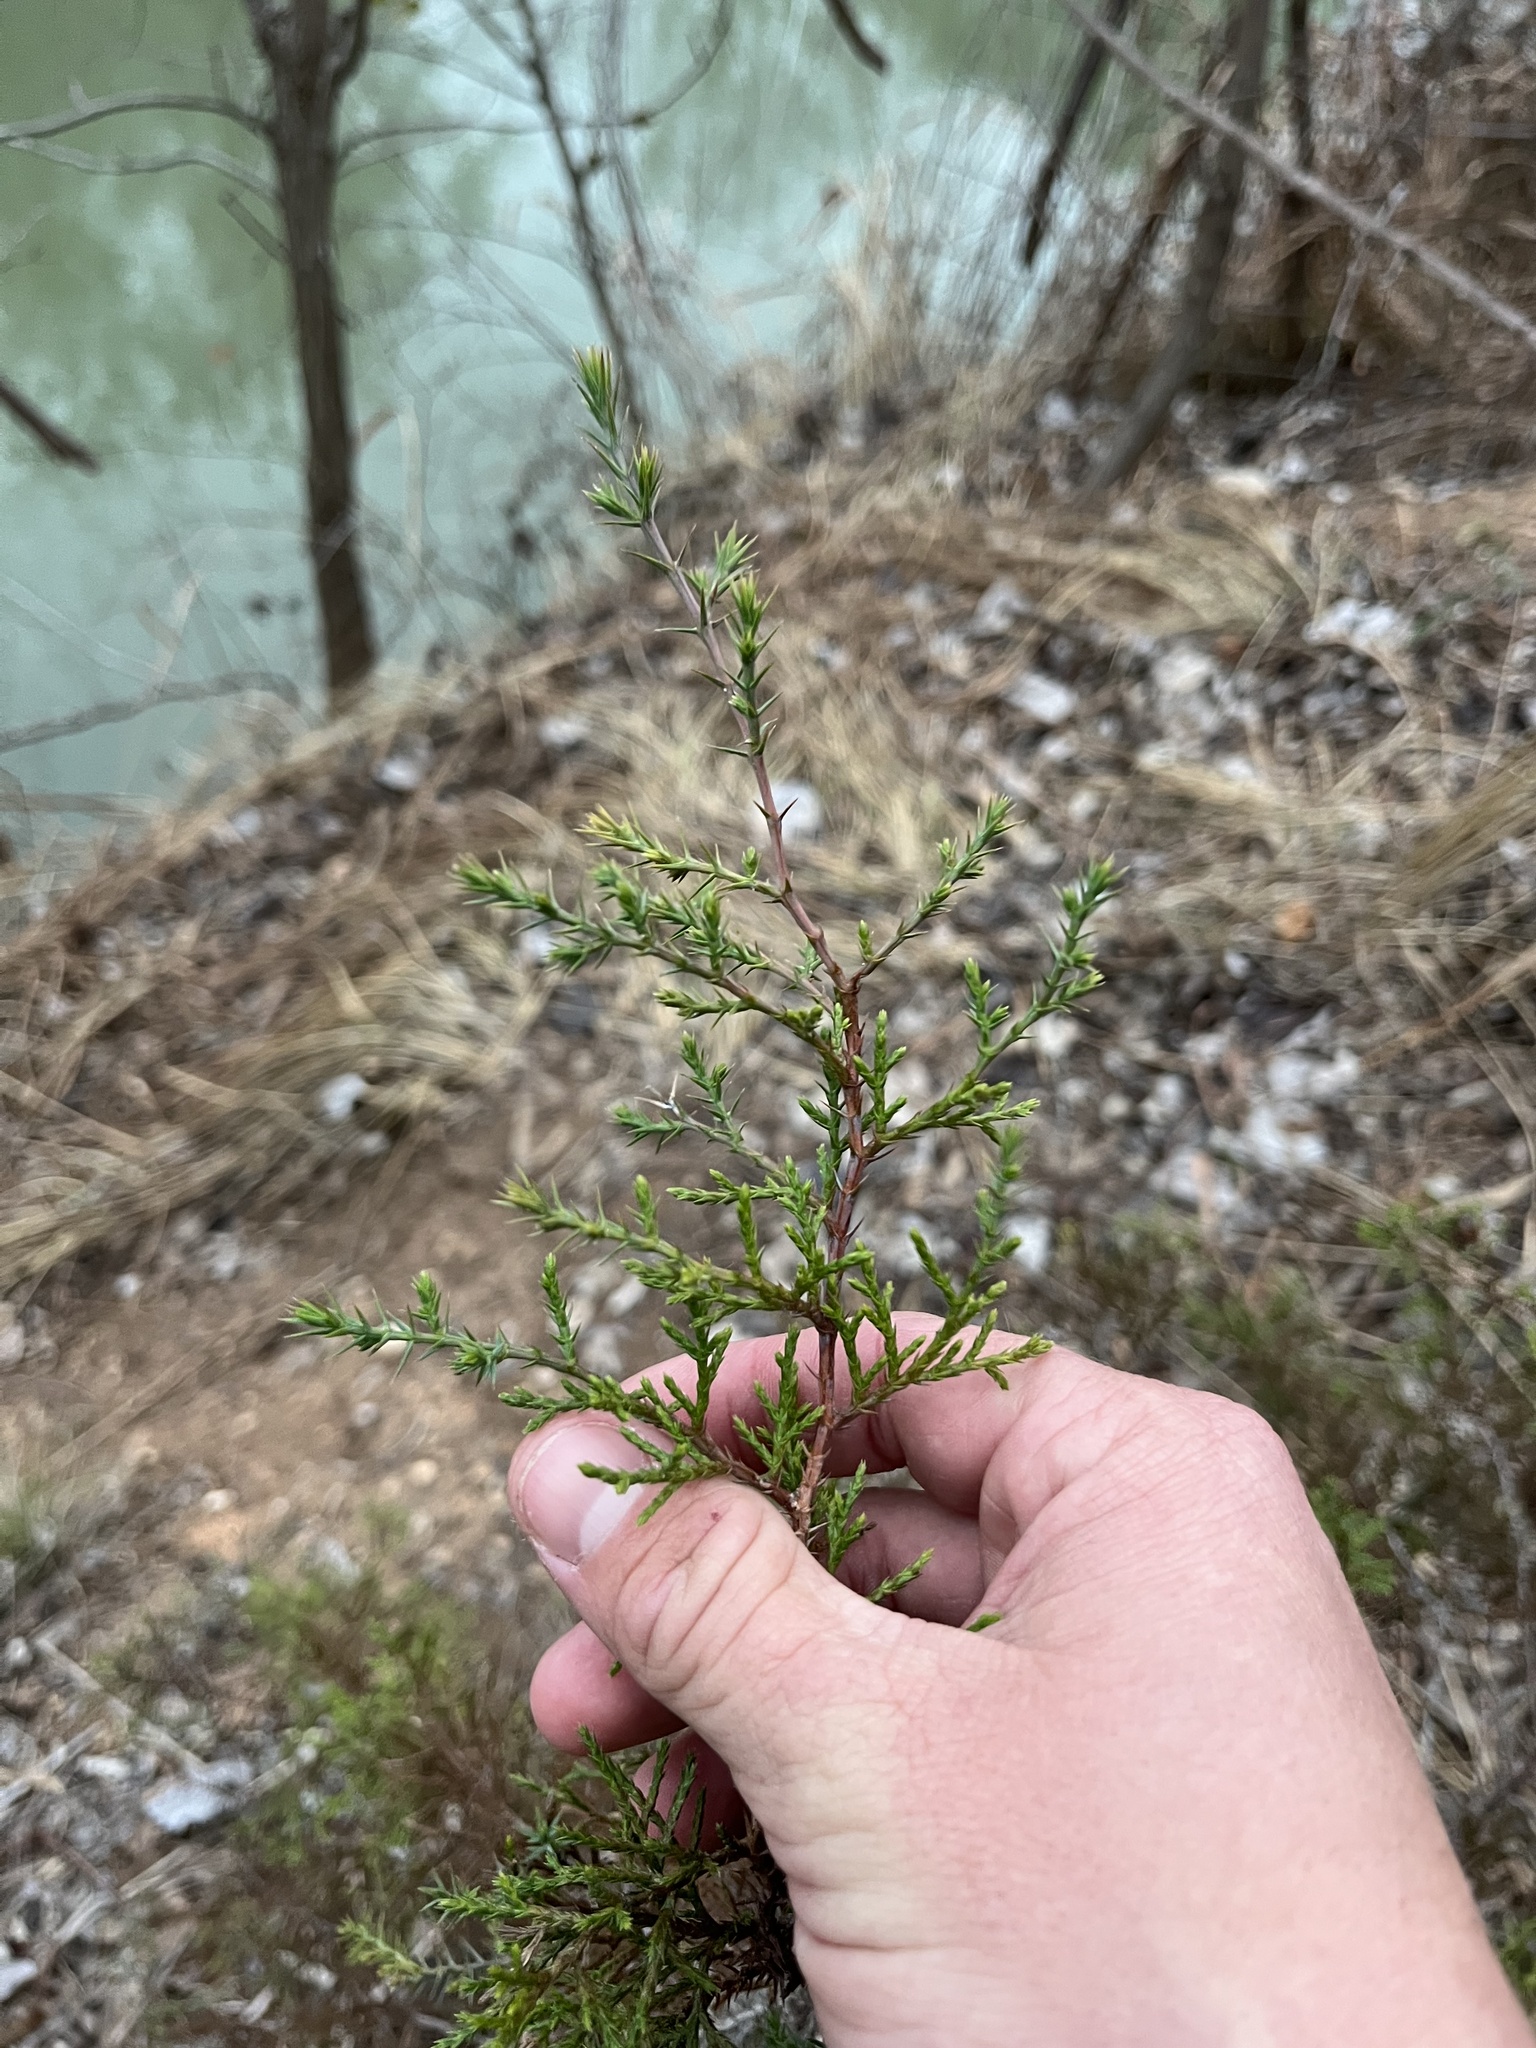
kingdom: Plantae
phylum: Tracheophyta
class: Pinopsida
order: Pinales
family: Cupressaceae
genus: Juniperus
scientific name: Juniperus ashei
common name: Mexican juniper
